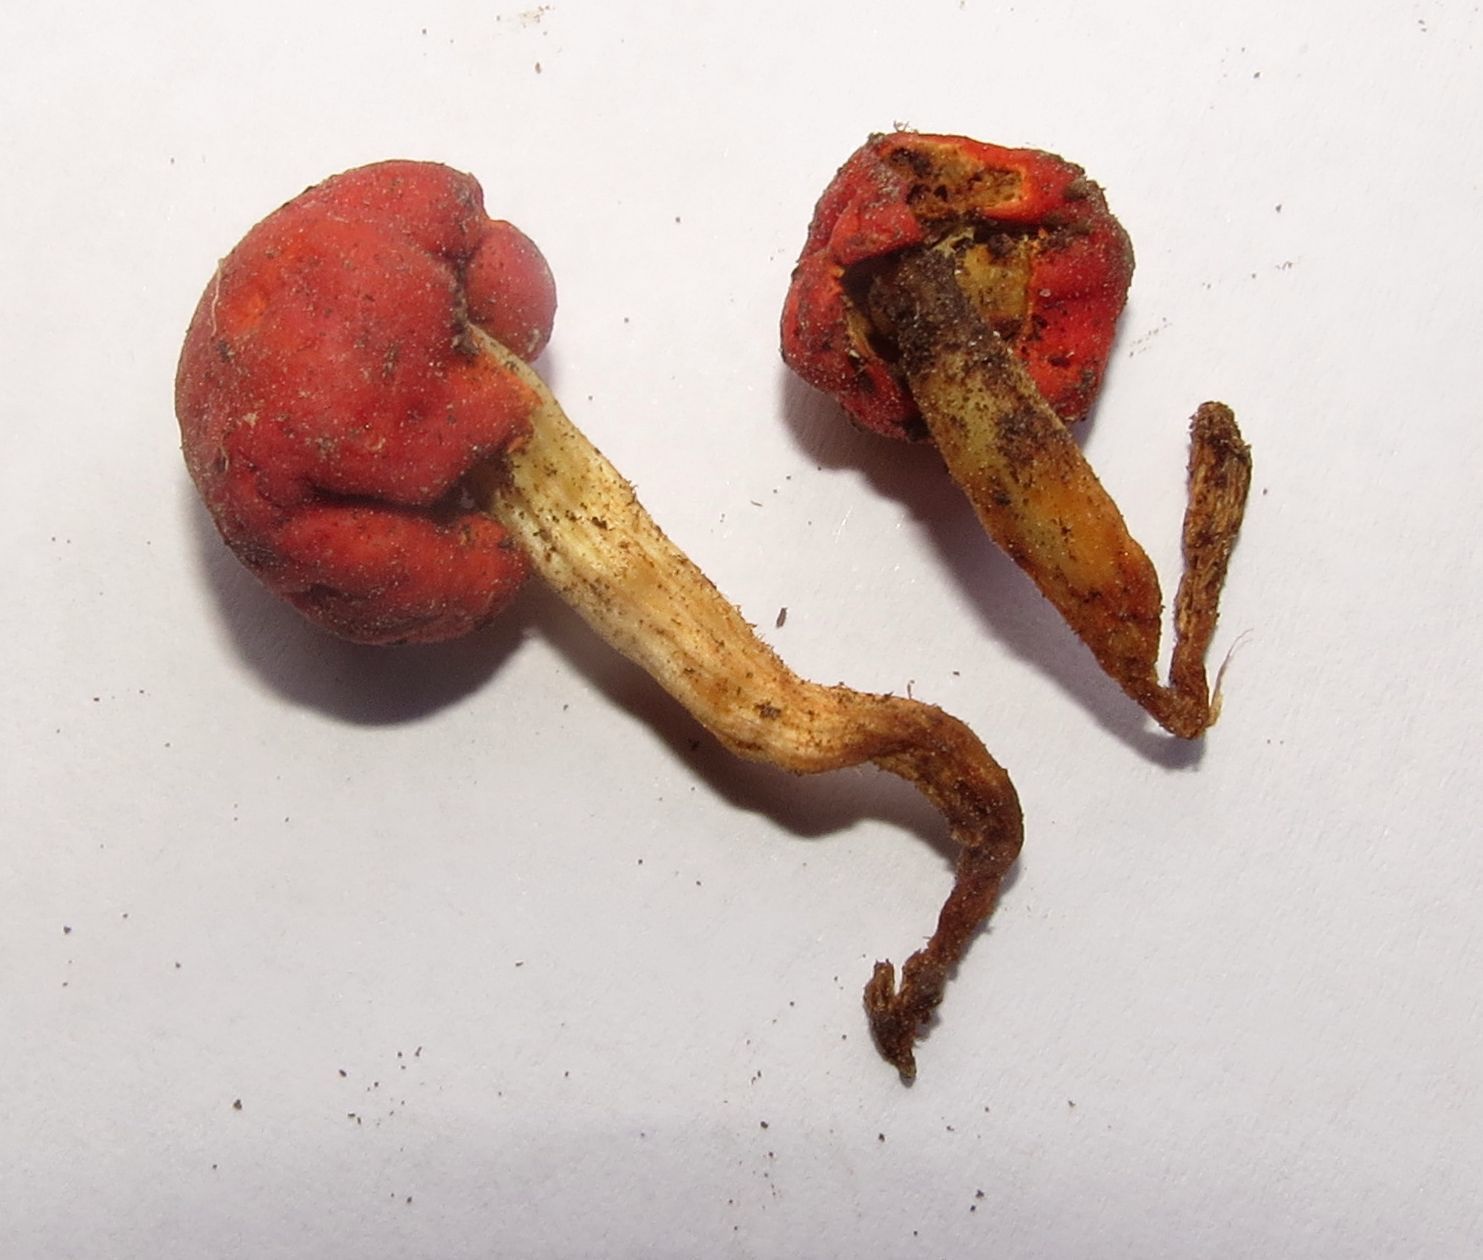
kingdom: Fungi
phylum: Basidiomycota
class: Agaricomycetes
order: Agaricales
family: Strophariaceae
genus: Leratiomyces
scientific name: Leratiomyces erythrocephalus
